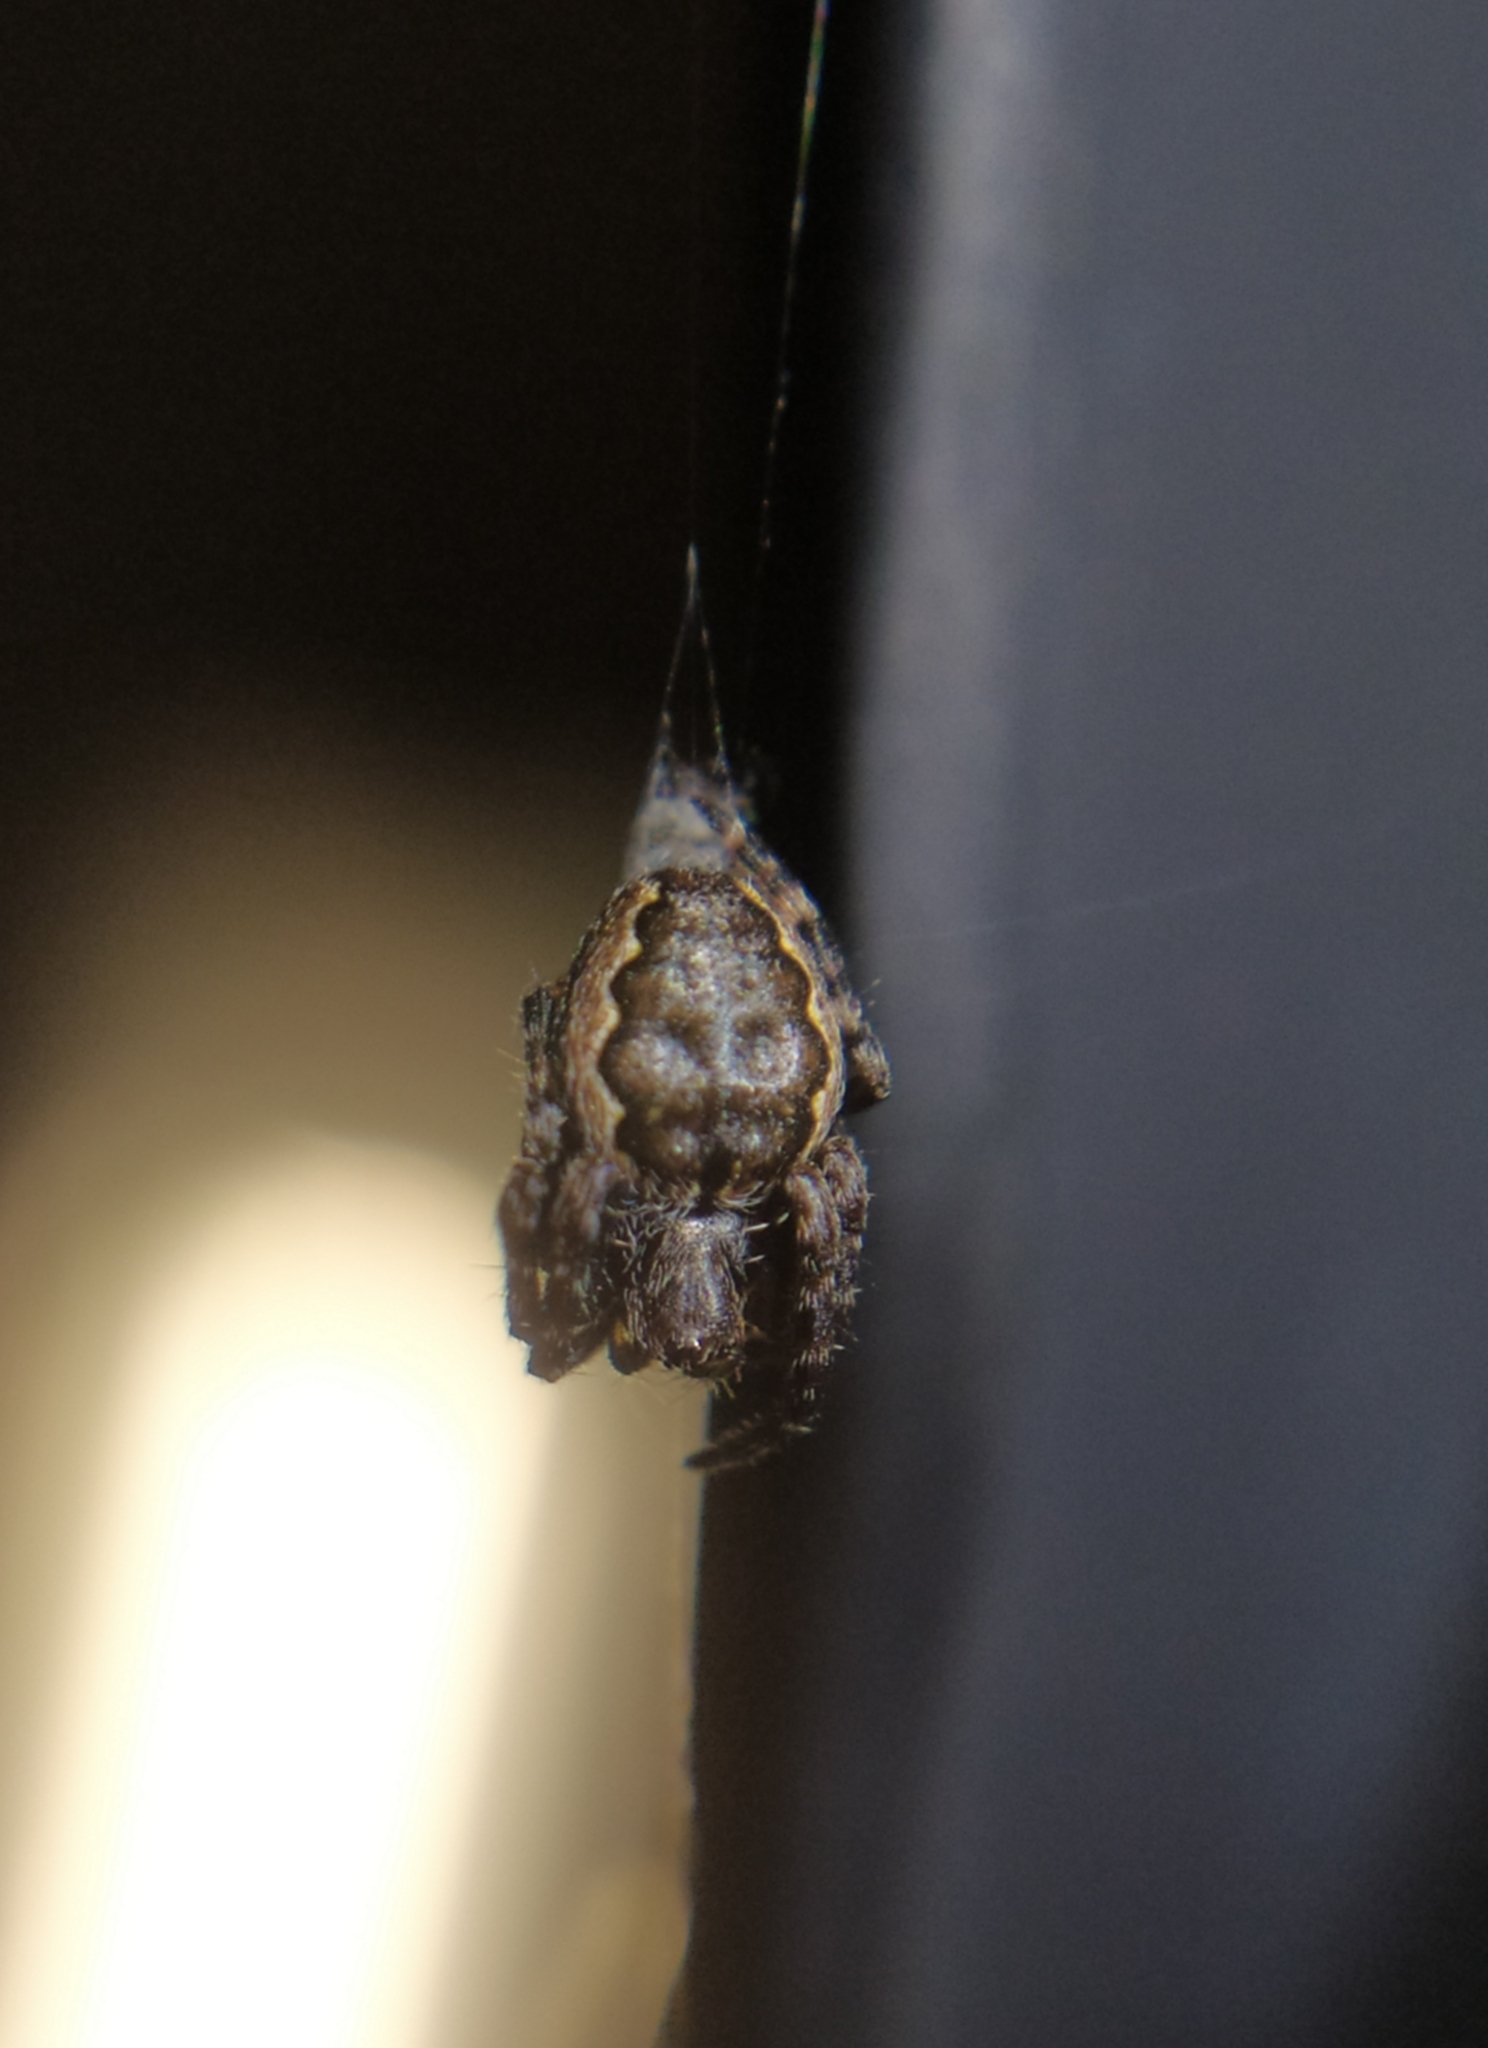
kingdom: Animalia
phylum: Arthropoda
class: Arachnida
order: Araneae
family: Araneidae
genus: Nuctenea
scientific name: Nuctenea umbratica
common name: Toad spider
